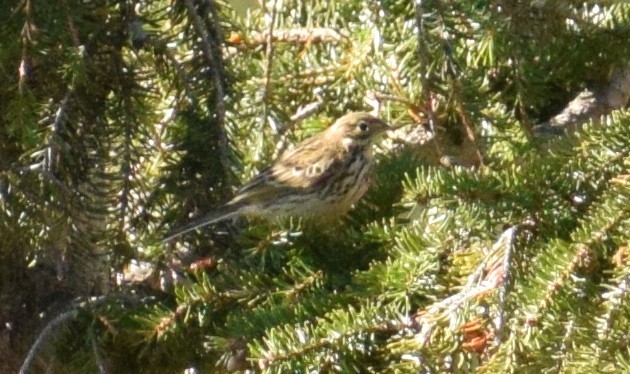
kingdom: Animalia
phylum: Chordata
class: Aves
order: Passeriformes
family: Motacillidae
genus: Anthus
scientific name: Anthus pratensis
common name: Meadow pipit
